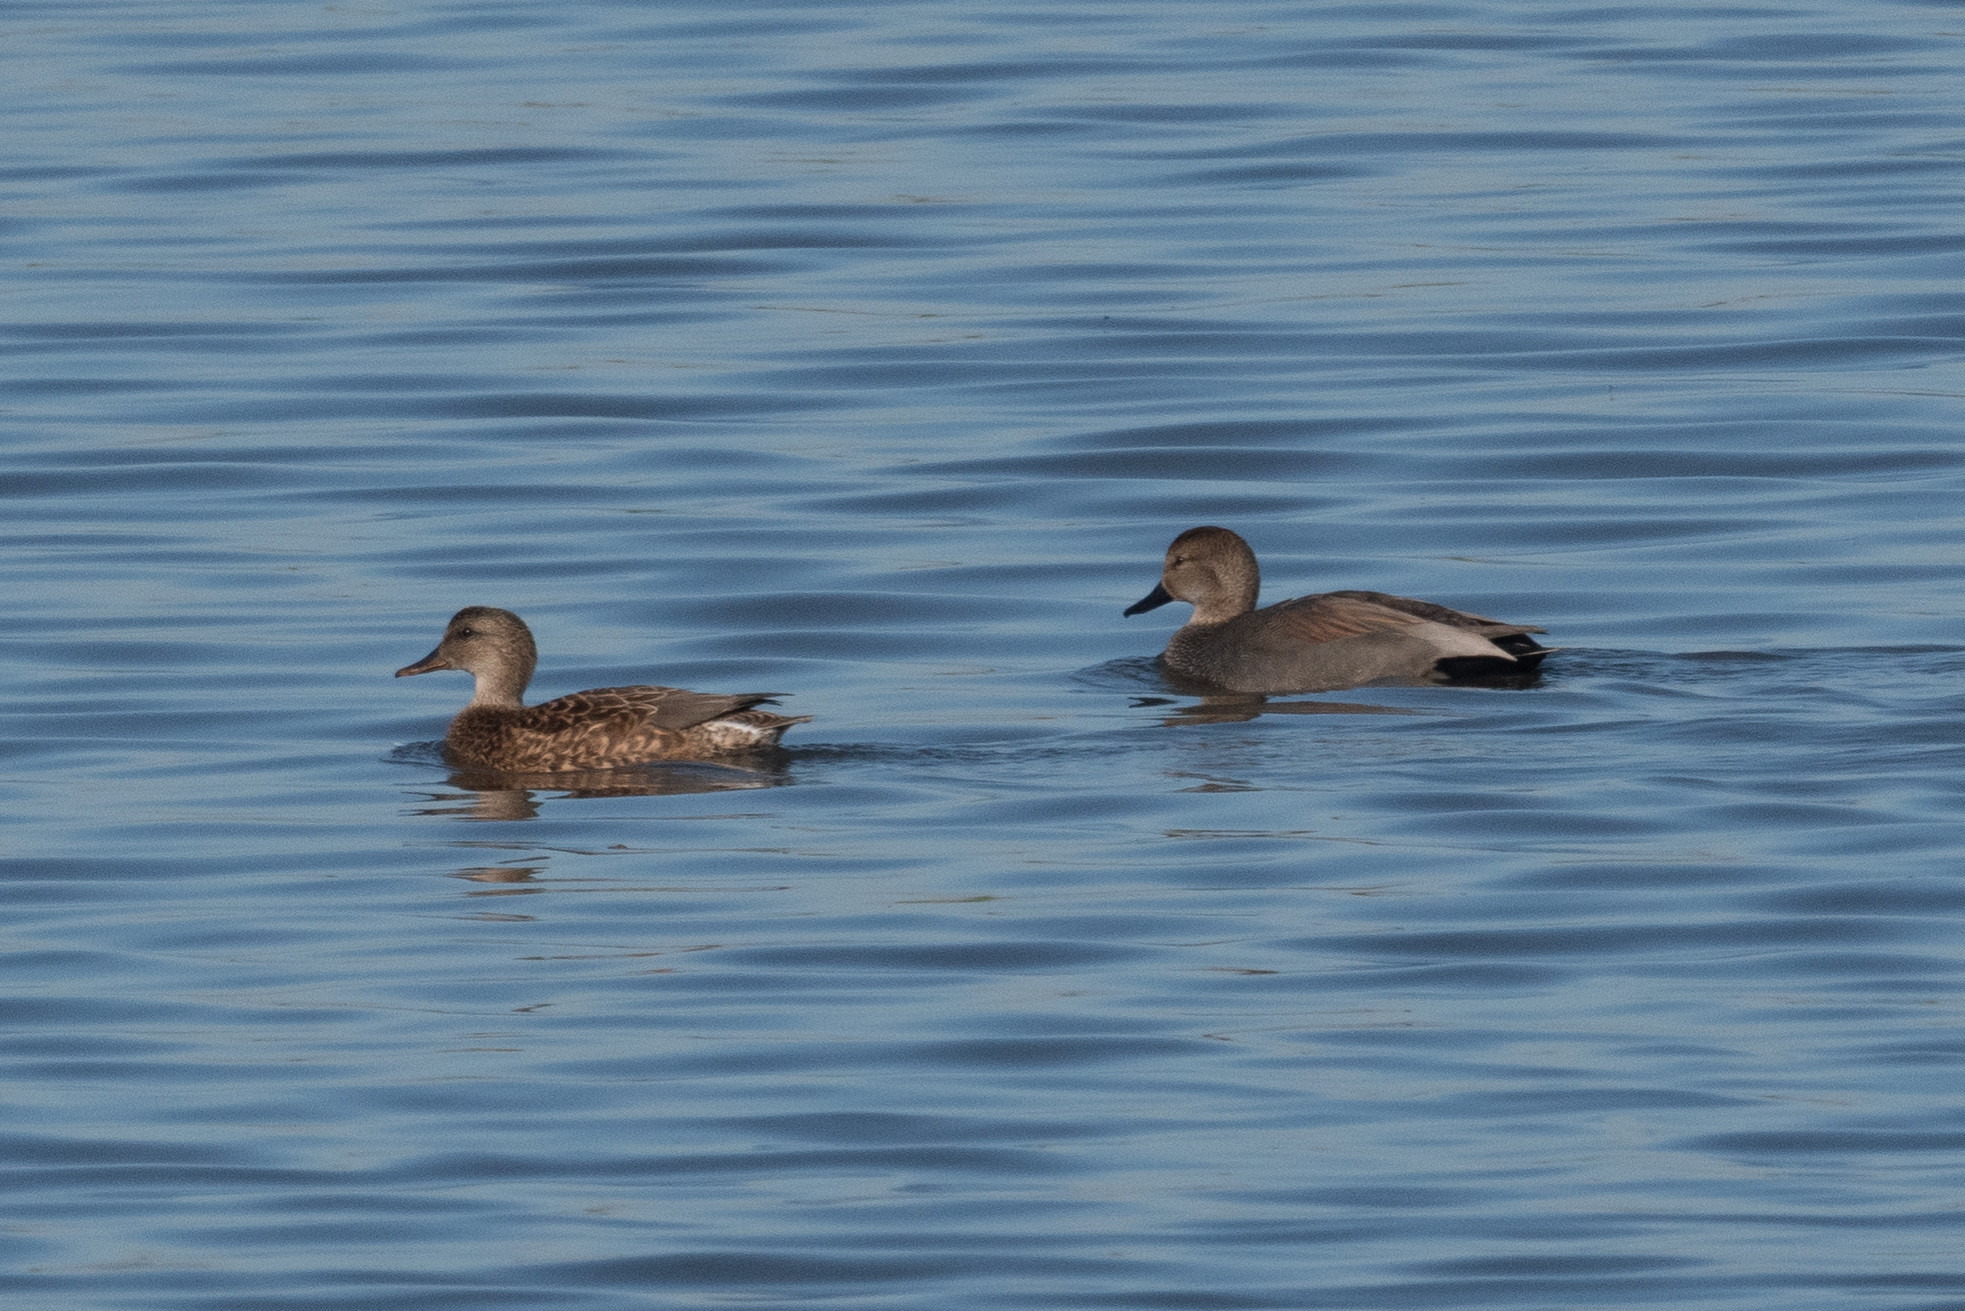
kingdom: Animalia
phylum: Chordata
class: Aves
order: Anseriformes
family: Anatidae
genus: Mareca
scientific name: Mareca strepera
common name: Gadwall
